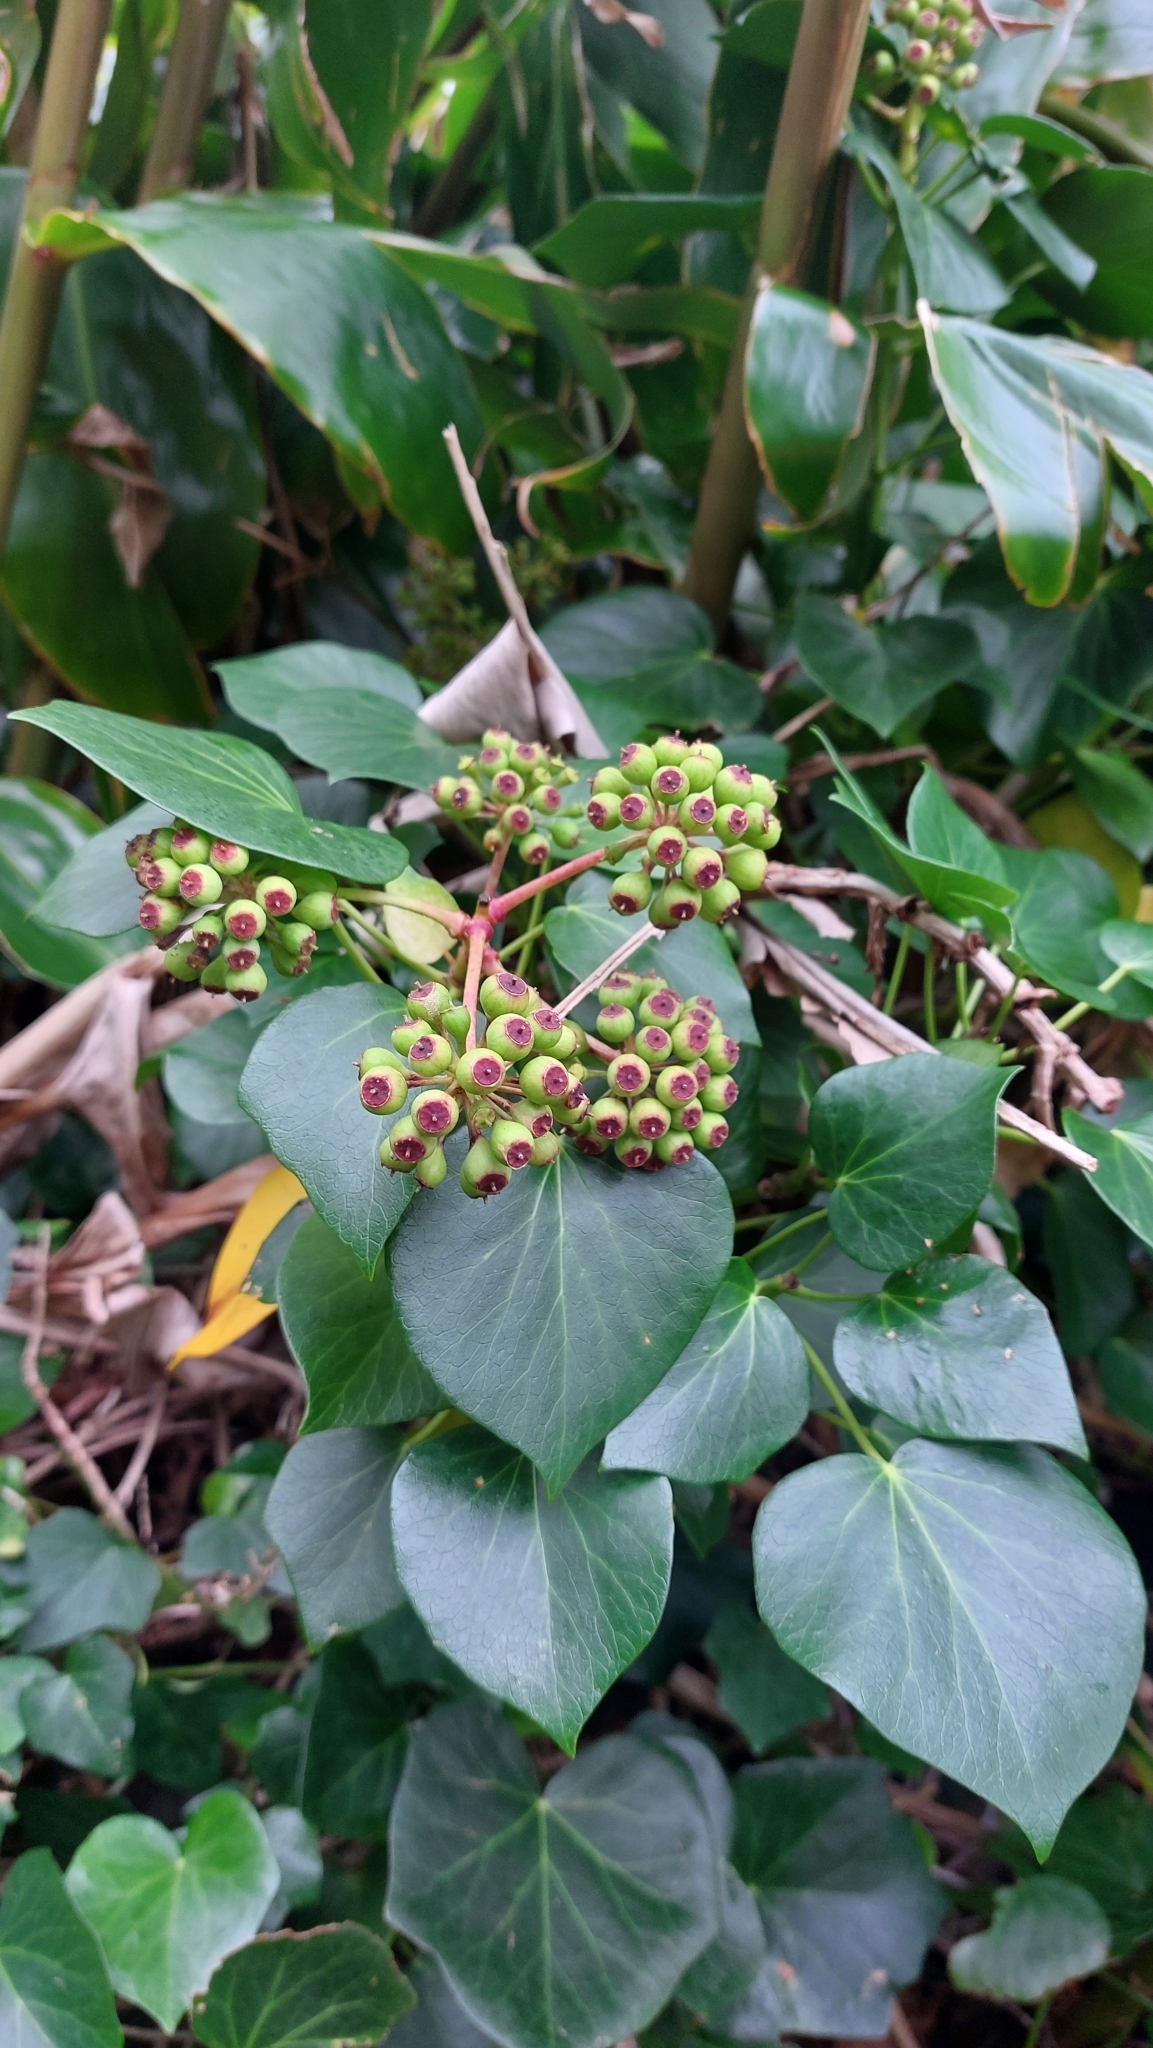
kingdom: Plantae
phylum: Tracheophyta
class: Magnoliopsida
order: Apiales
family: Araliaceae
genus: Hedera
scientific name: Hedera azorica
